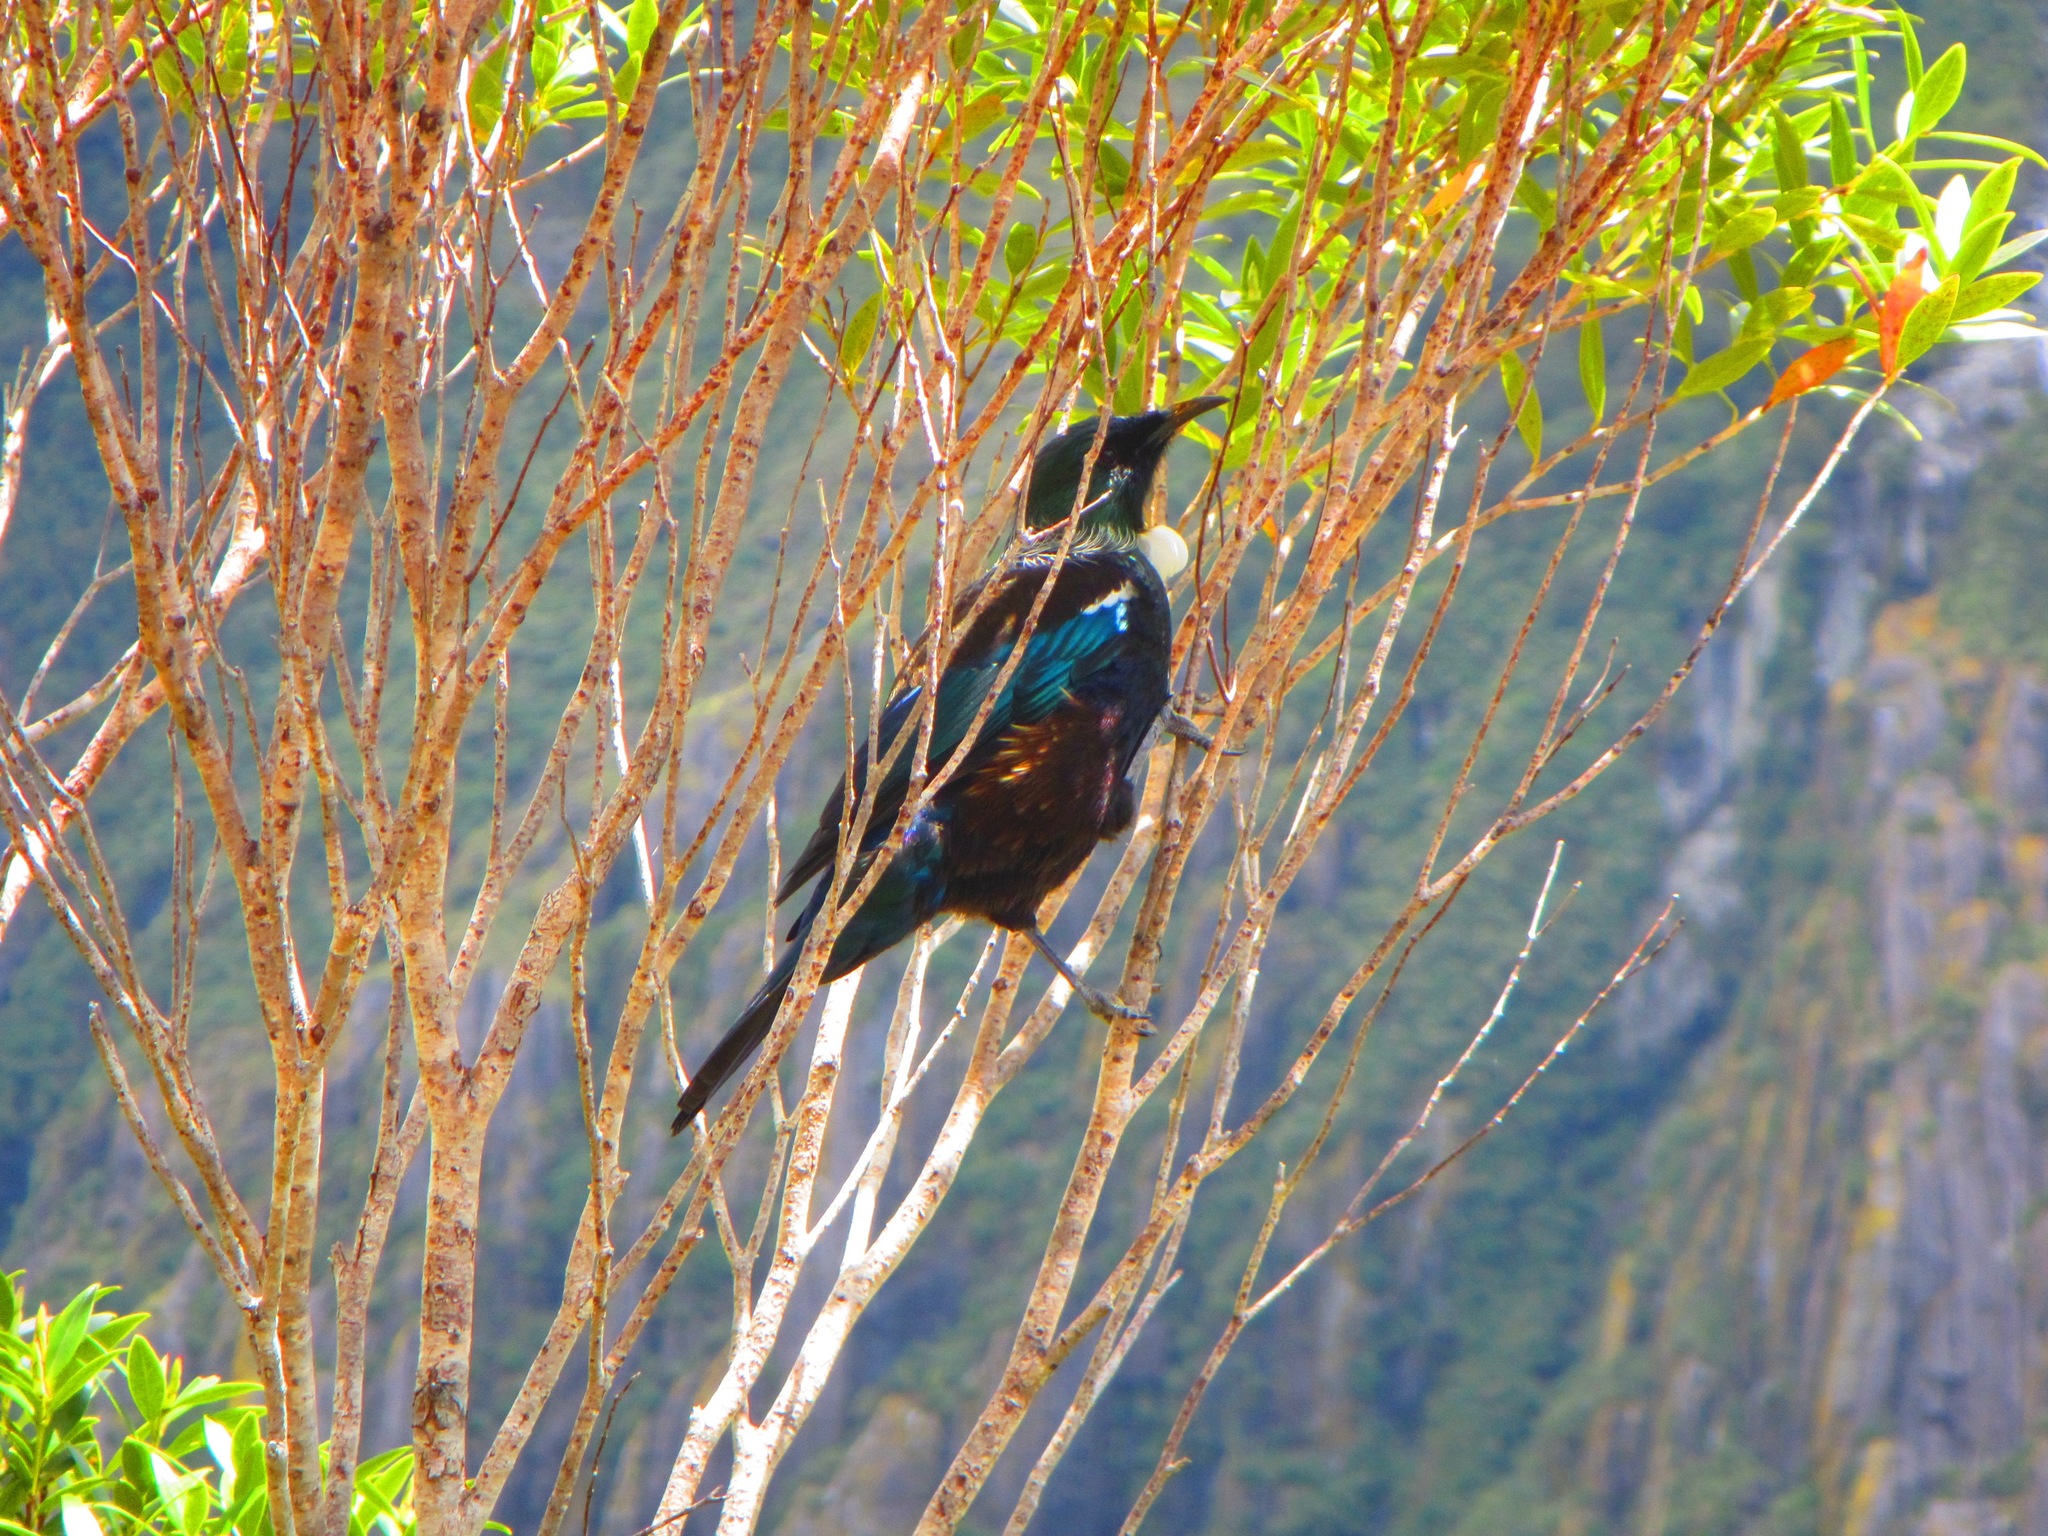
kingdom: Animalia
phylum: Chordata
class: Aves
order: Passeriformes
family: Meliphagidae
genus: Prosthemadera
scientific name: Prosthemadera novaeseelandiae
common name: Tui
